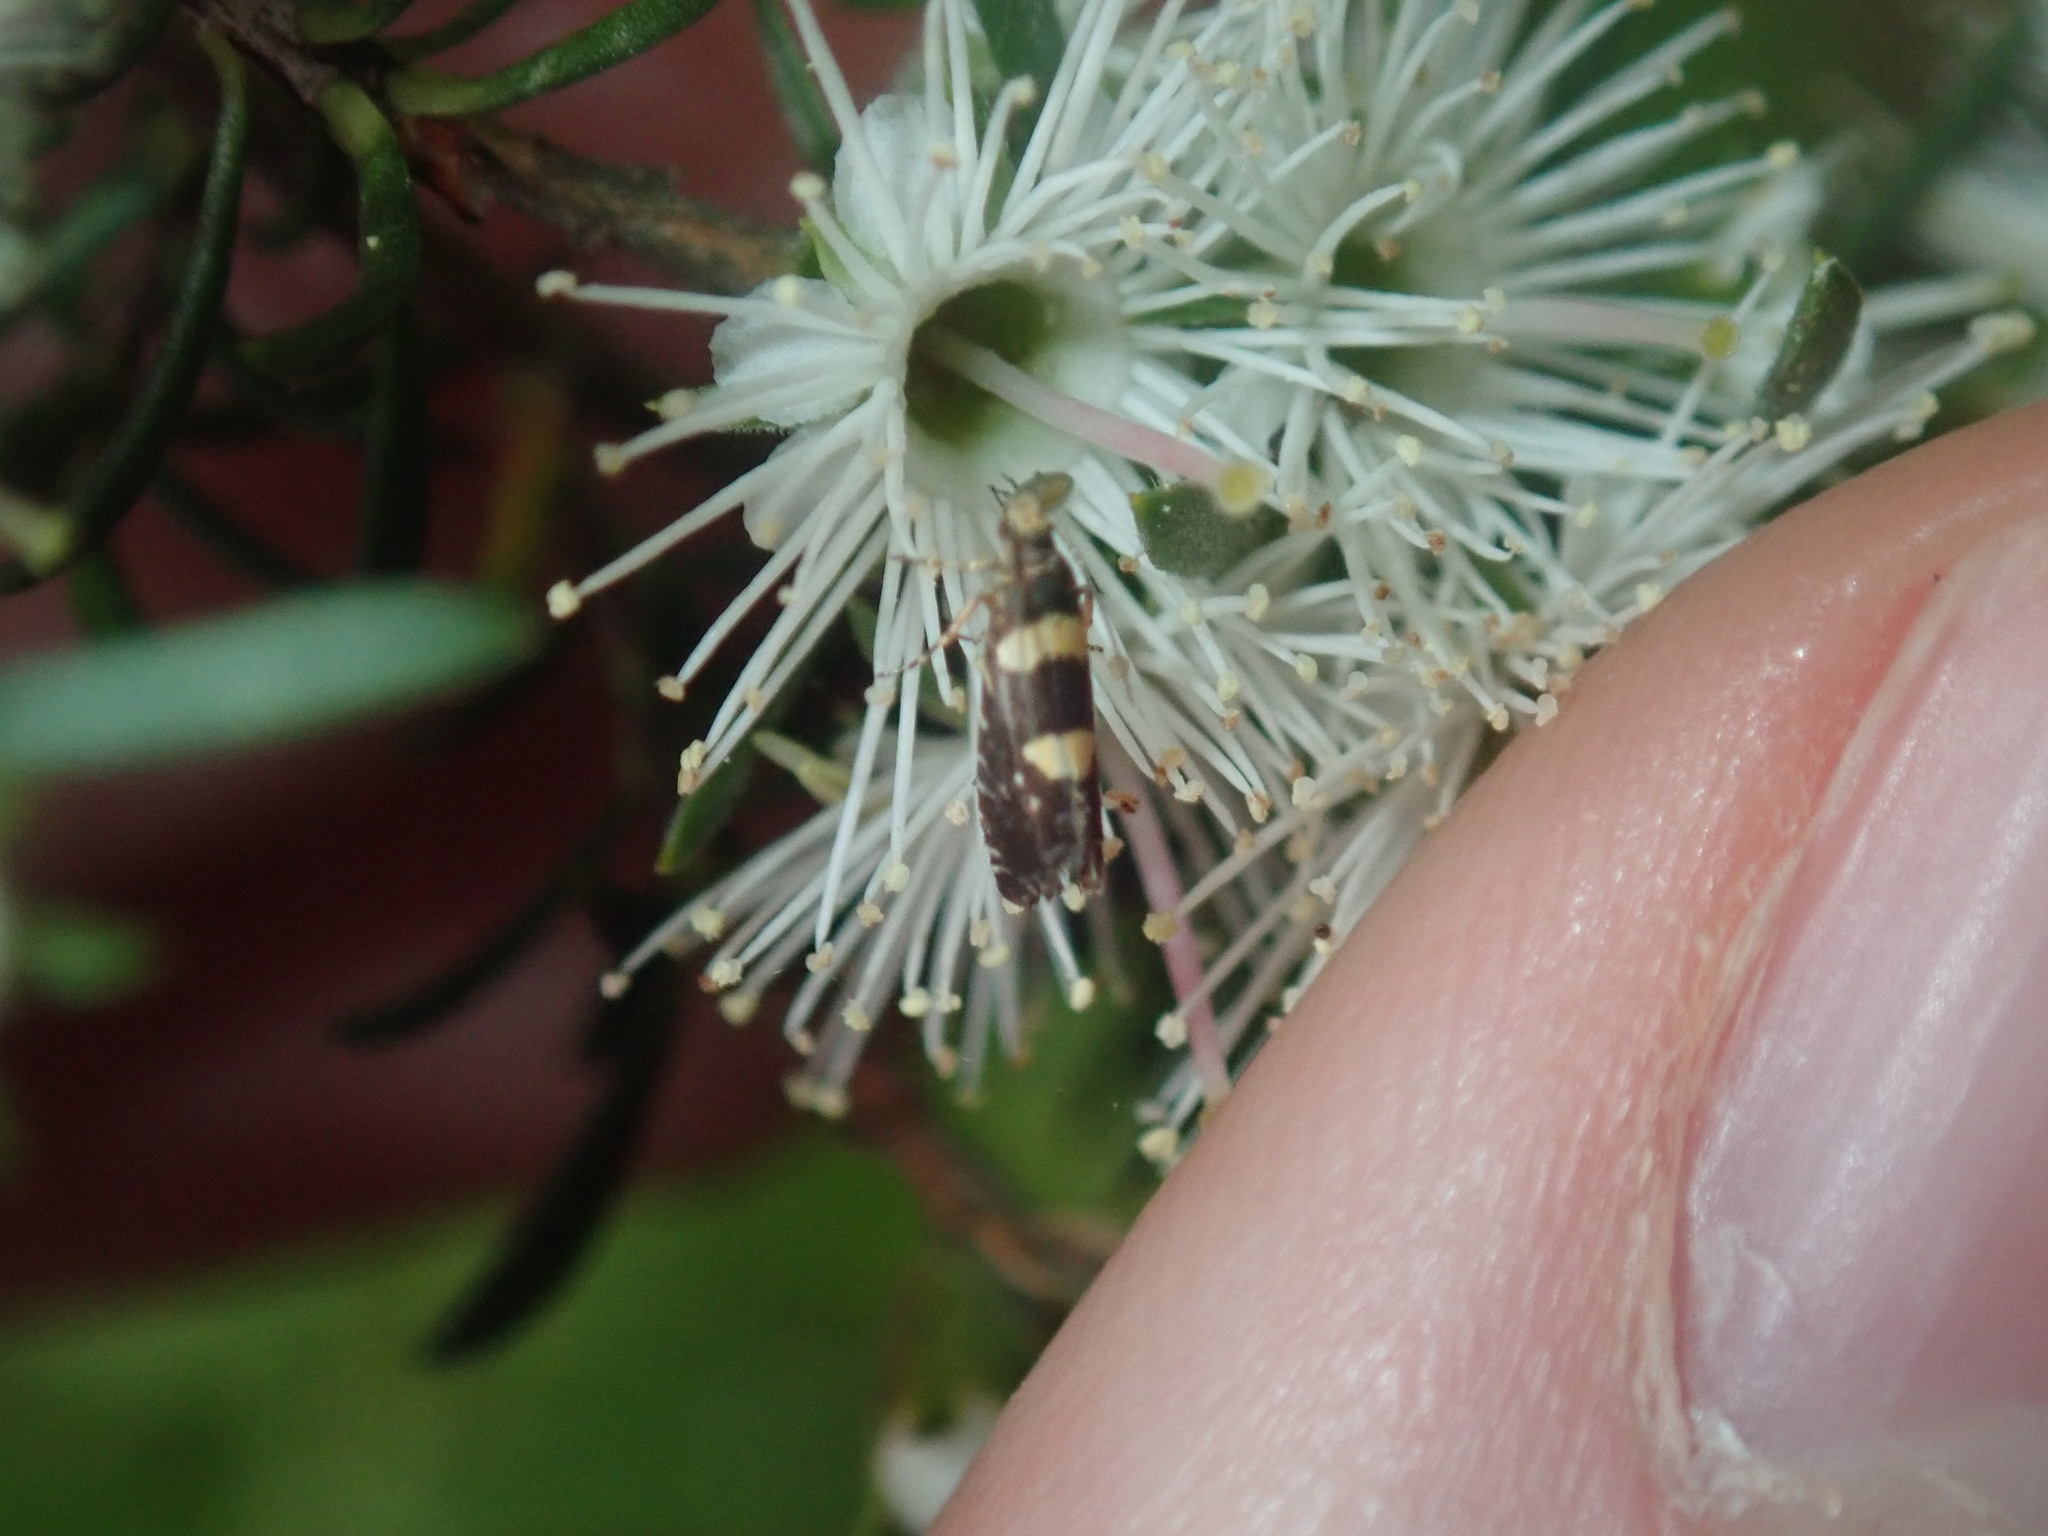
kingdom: Animalia
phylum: Arthropoda
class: Insecta
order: Lepidoptera
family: Glyphipterigidae
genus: Glyphipterix
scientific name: Glyphipterix chrysoplanetis
